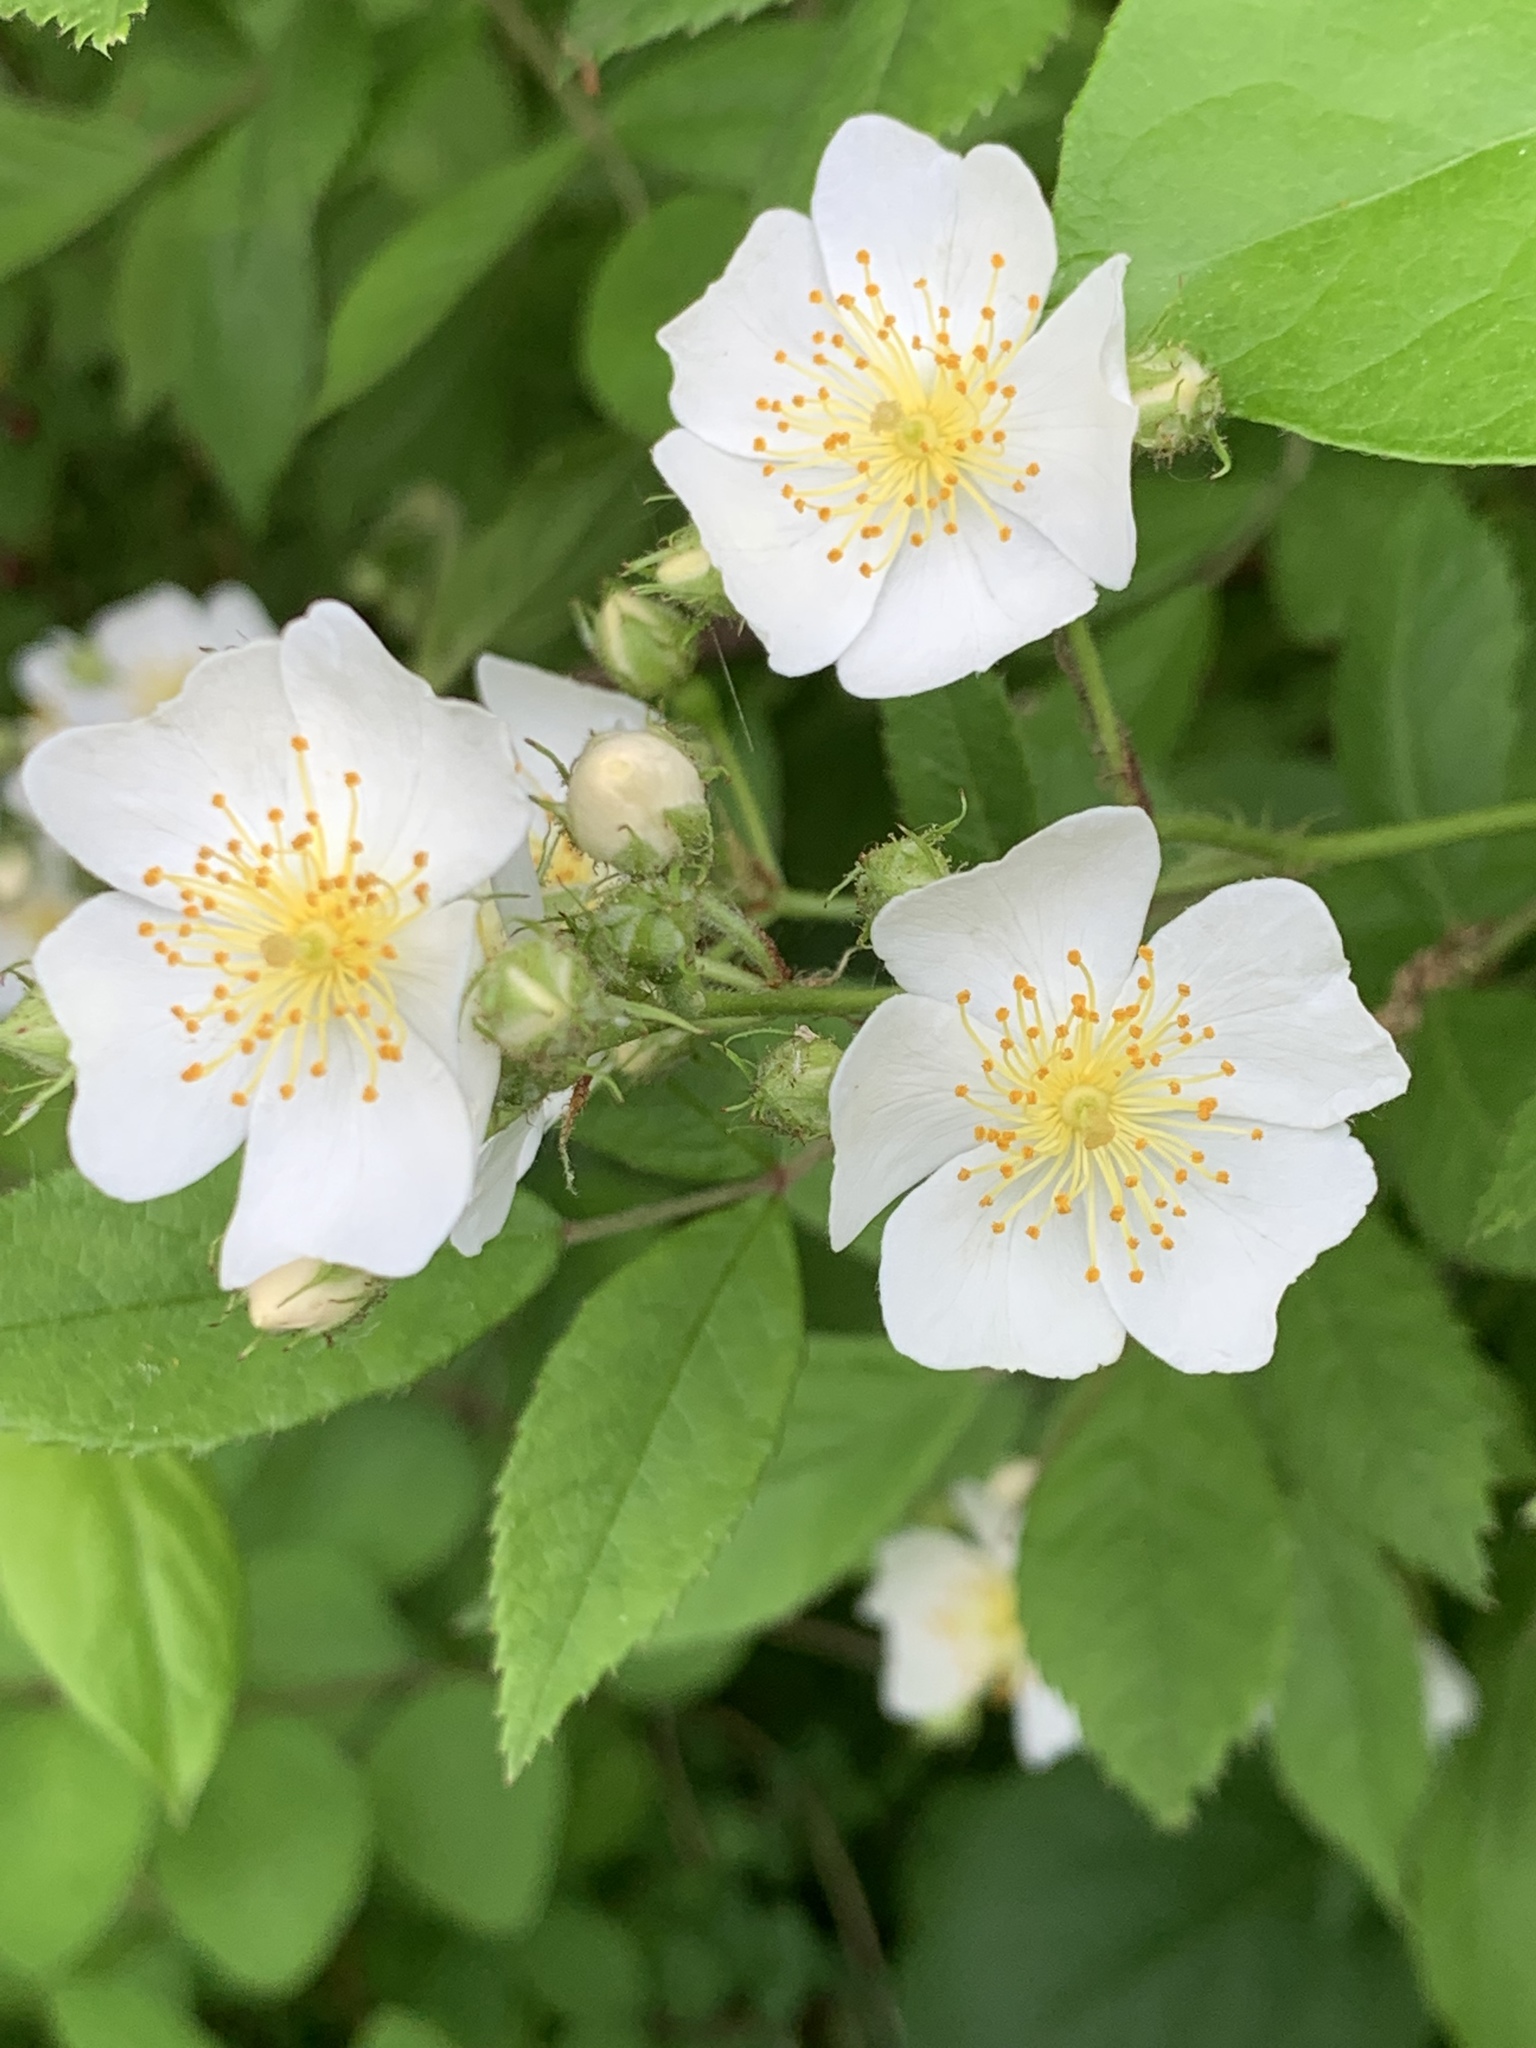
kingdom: Plantae
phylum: Tracheophyta
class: Magnoliopsida
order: Rosales
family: Rosaceae
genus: Rosa
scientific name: Rosa multiflora
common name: Multiflora rose
